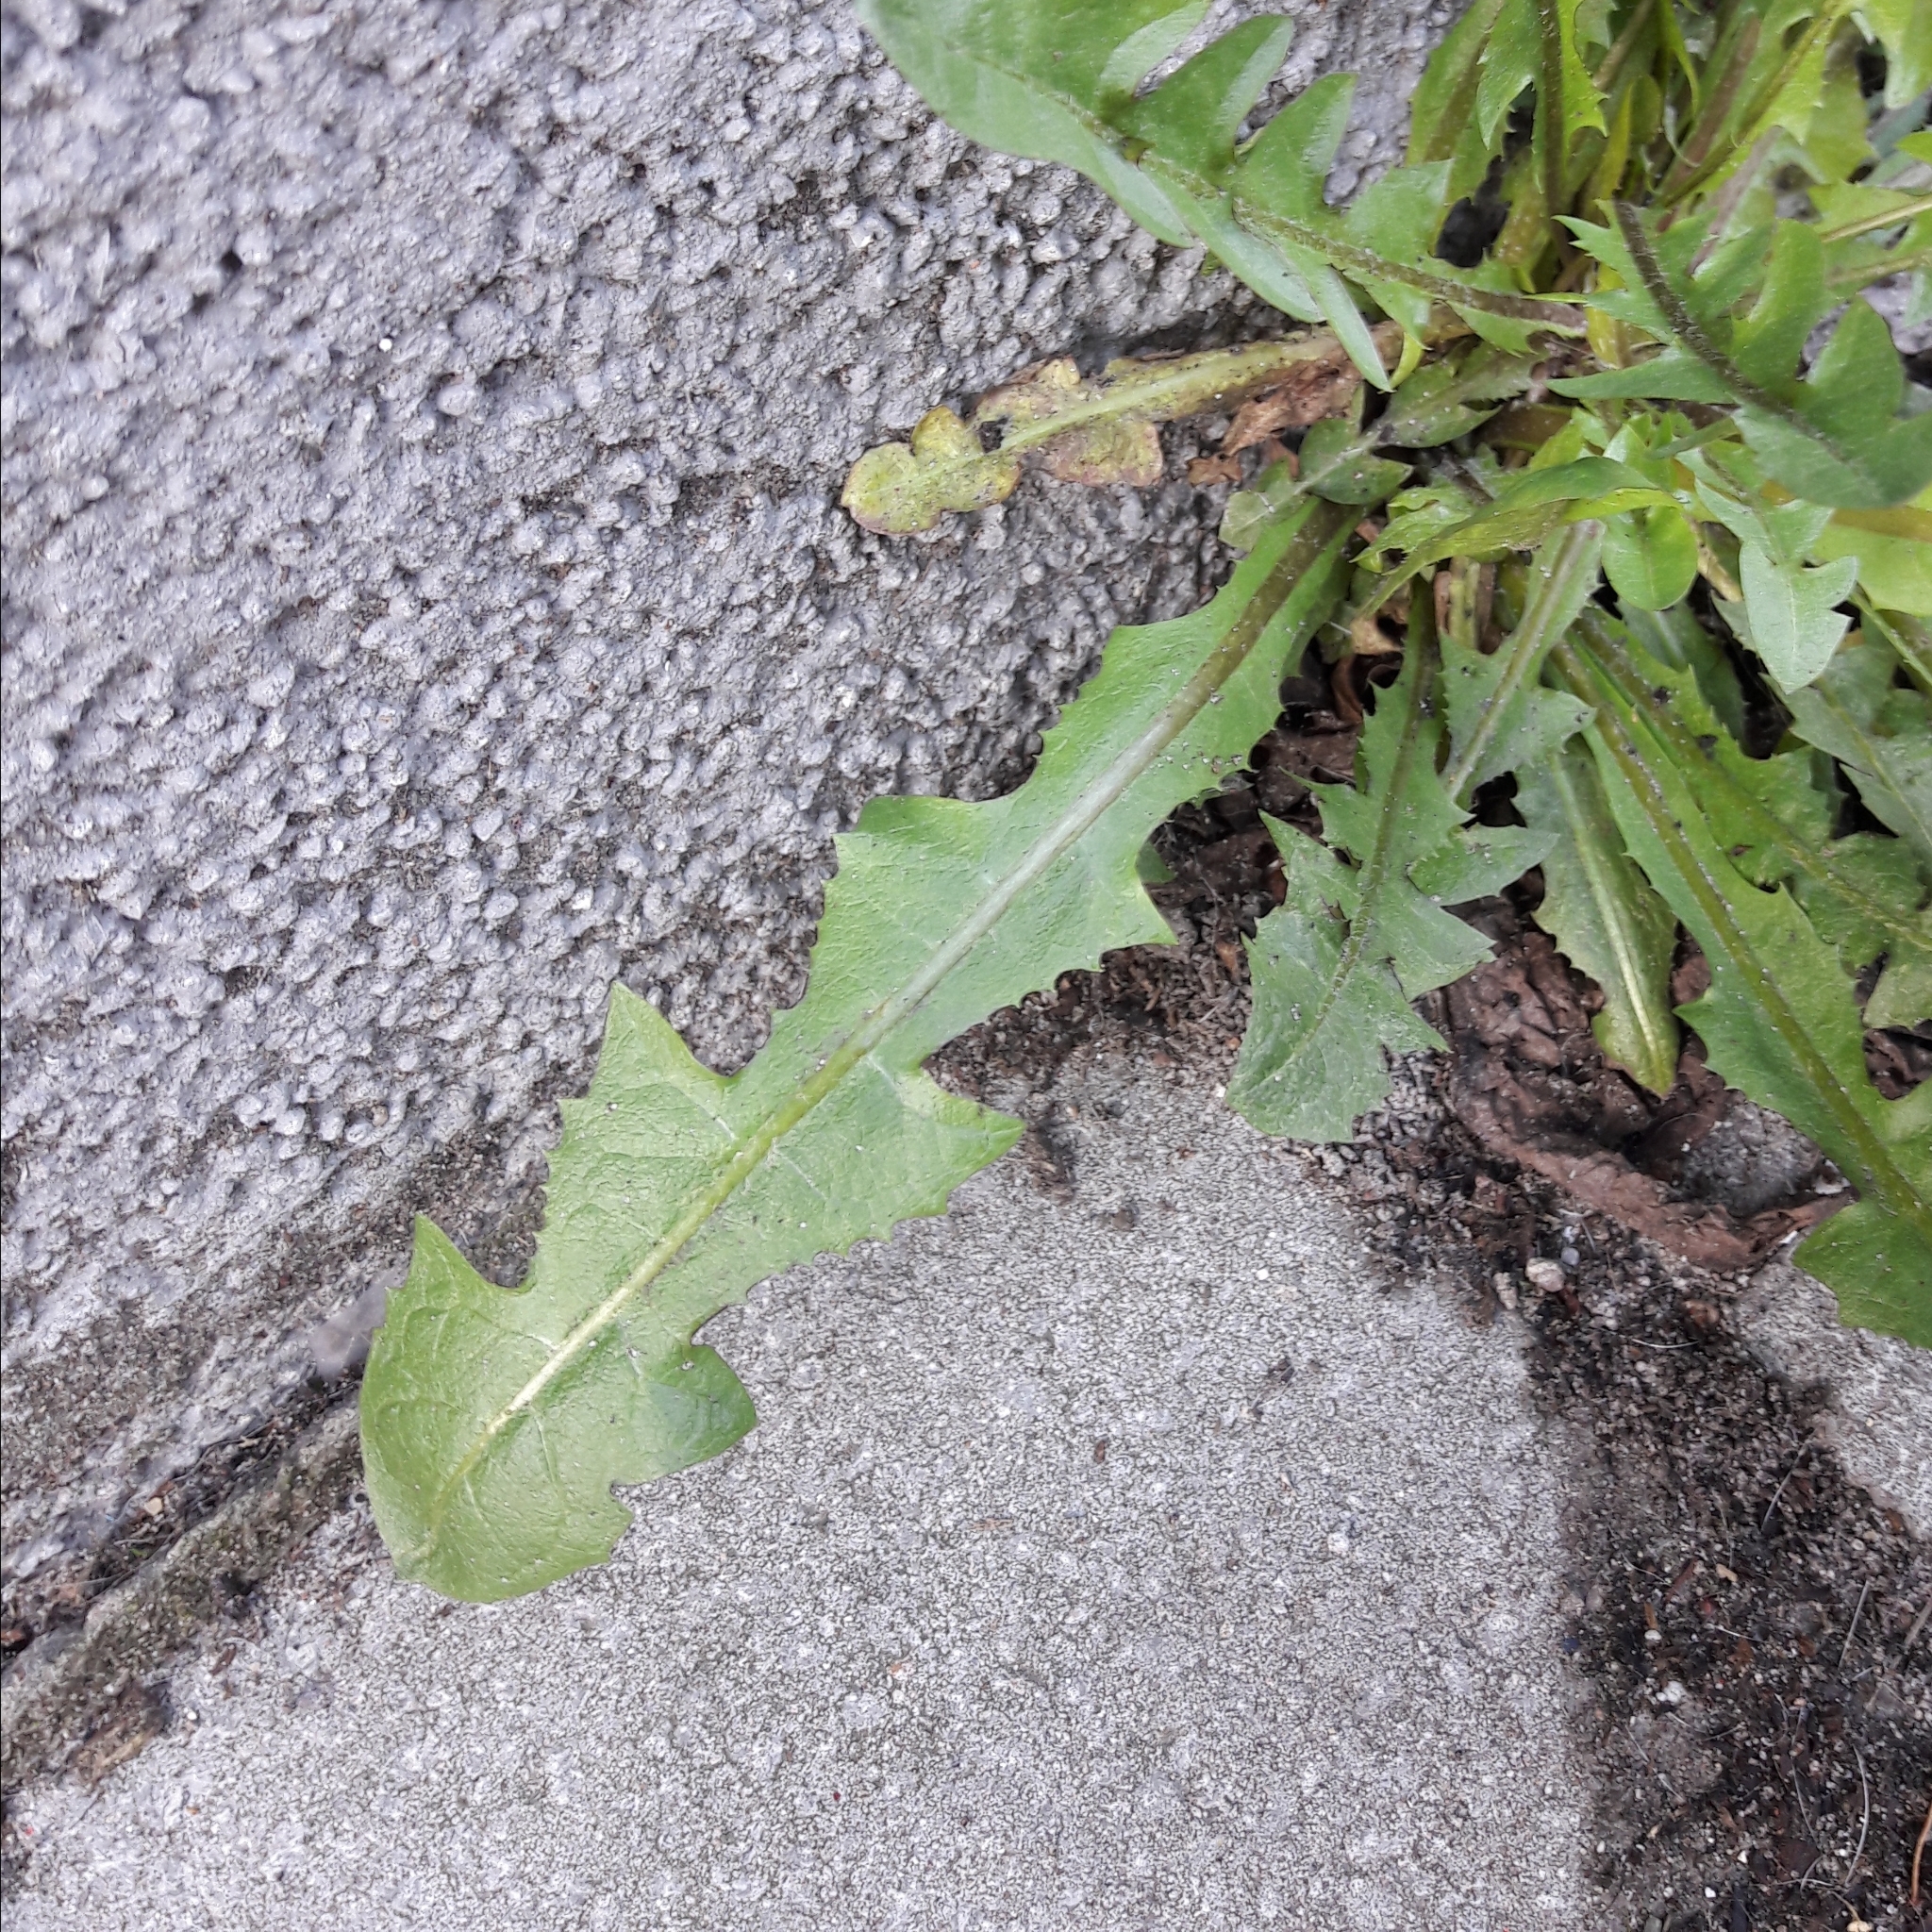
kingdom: Plantae
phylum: Tracheophyta
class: Magnoliopsida
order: Asterales
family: Asteraceae
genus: Taraxacum
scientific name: Taraxacum officinale
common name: Common dandelion
